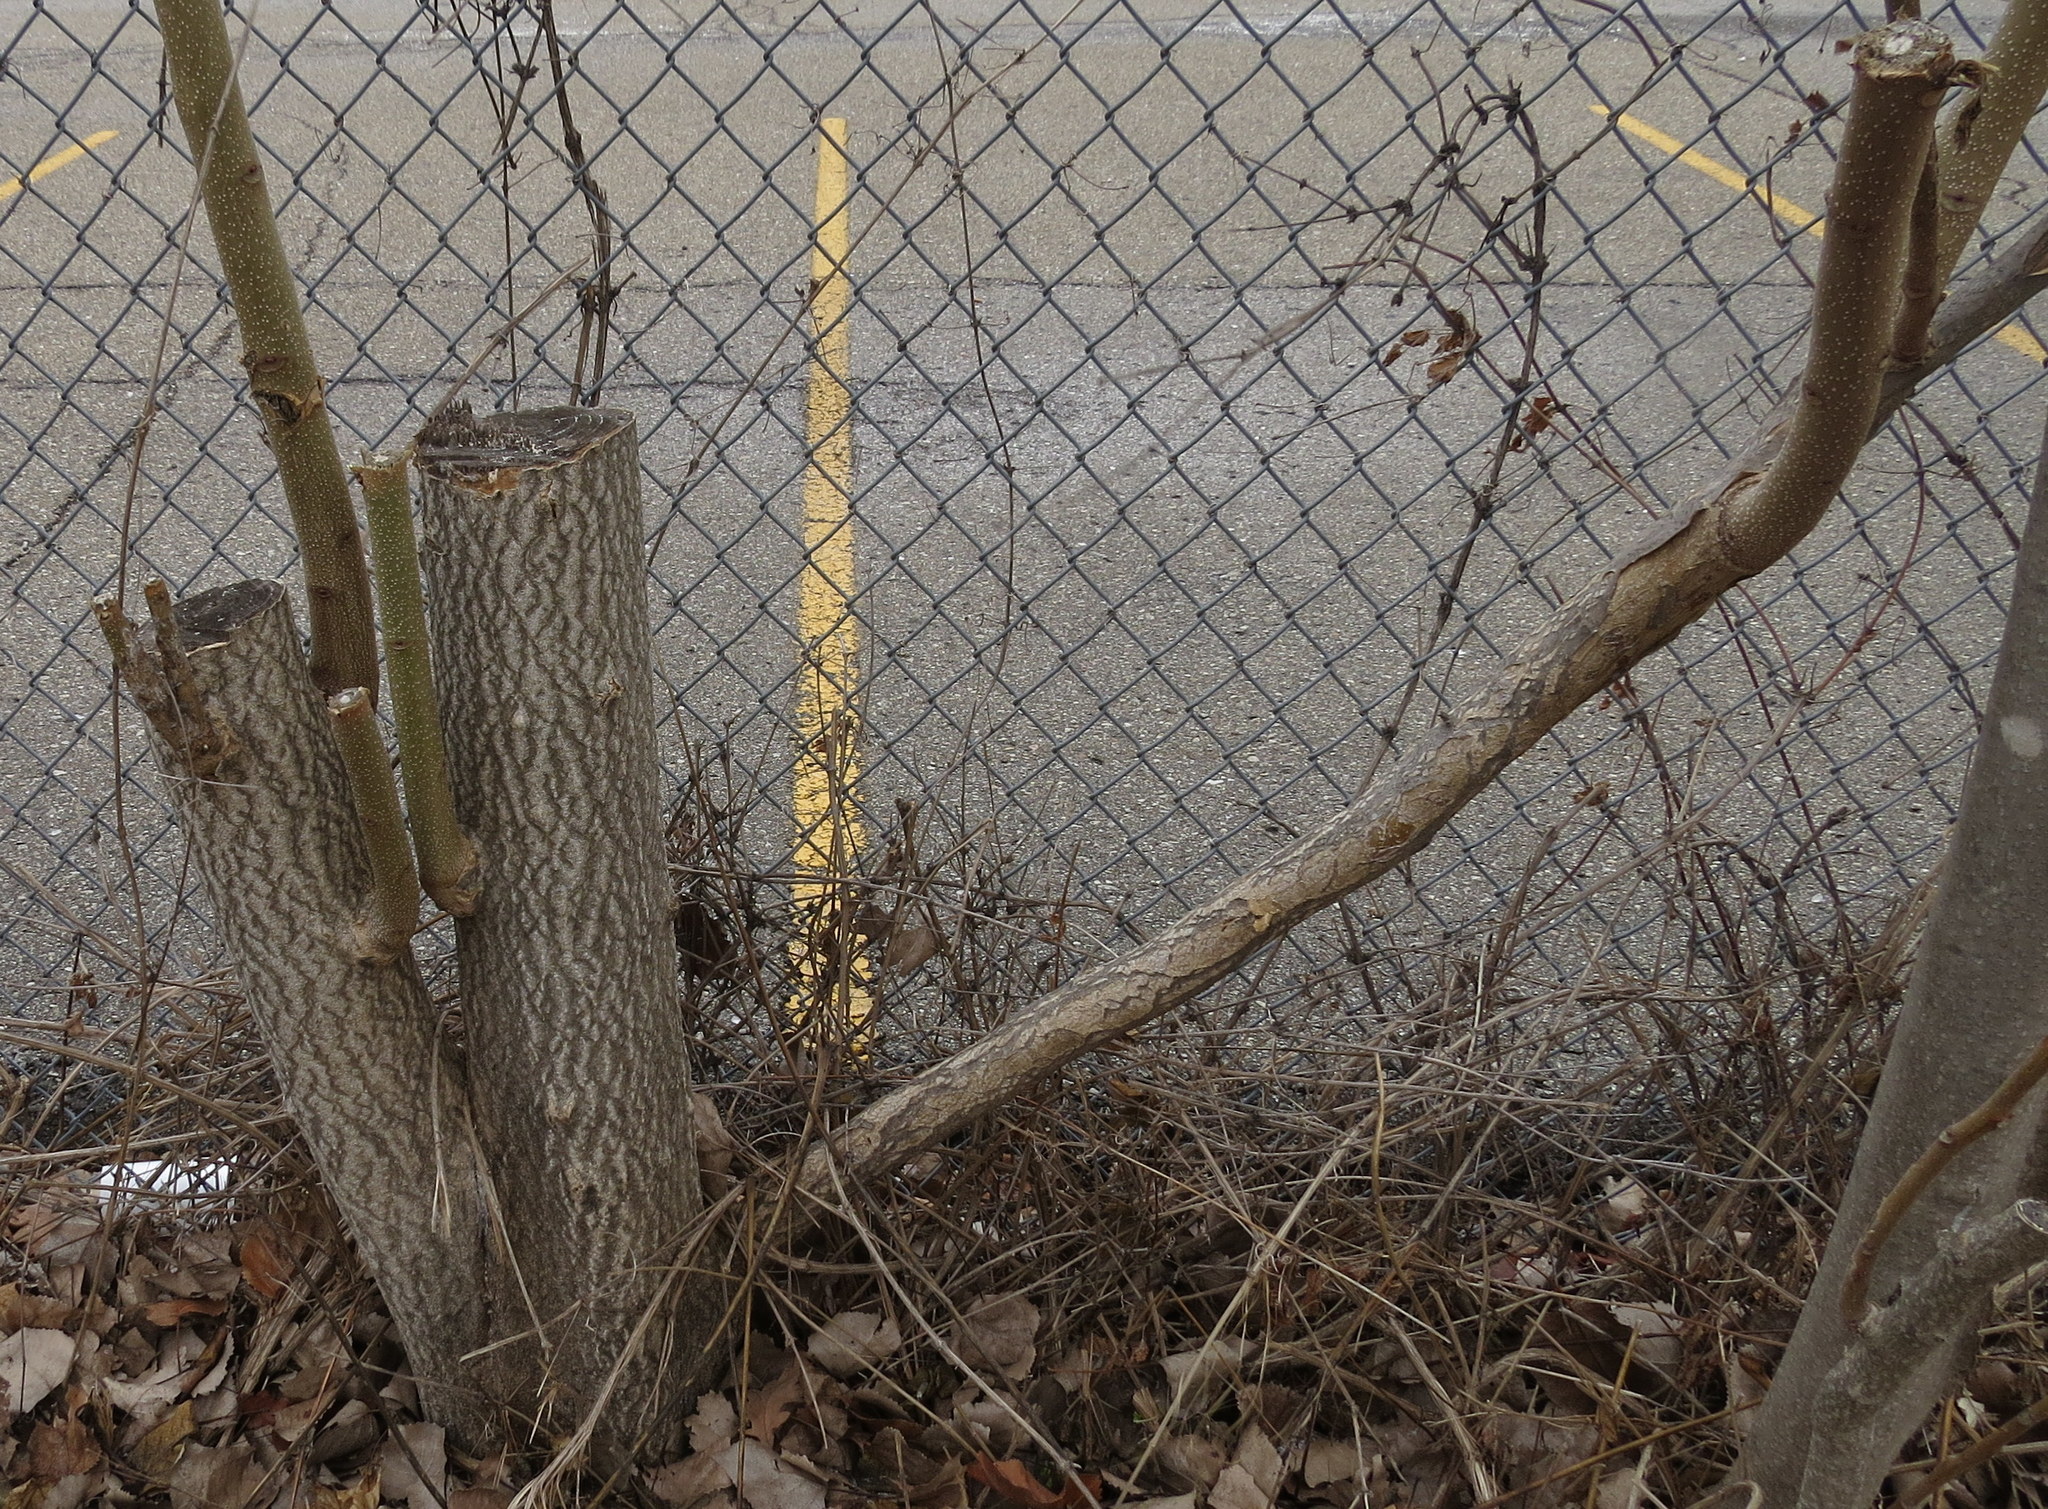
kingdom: Plantae
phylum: Tracheophyta
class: Magnoliopsida
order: Sapindales
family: Simaroubaceae
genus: Ailanthus
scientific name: Ailanthus altissima
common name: Tree-of-heaven
